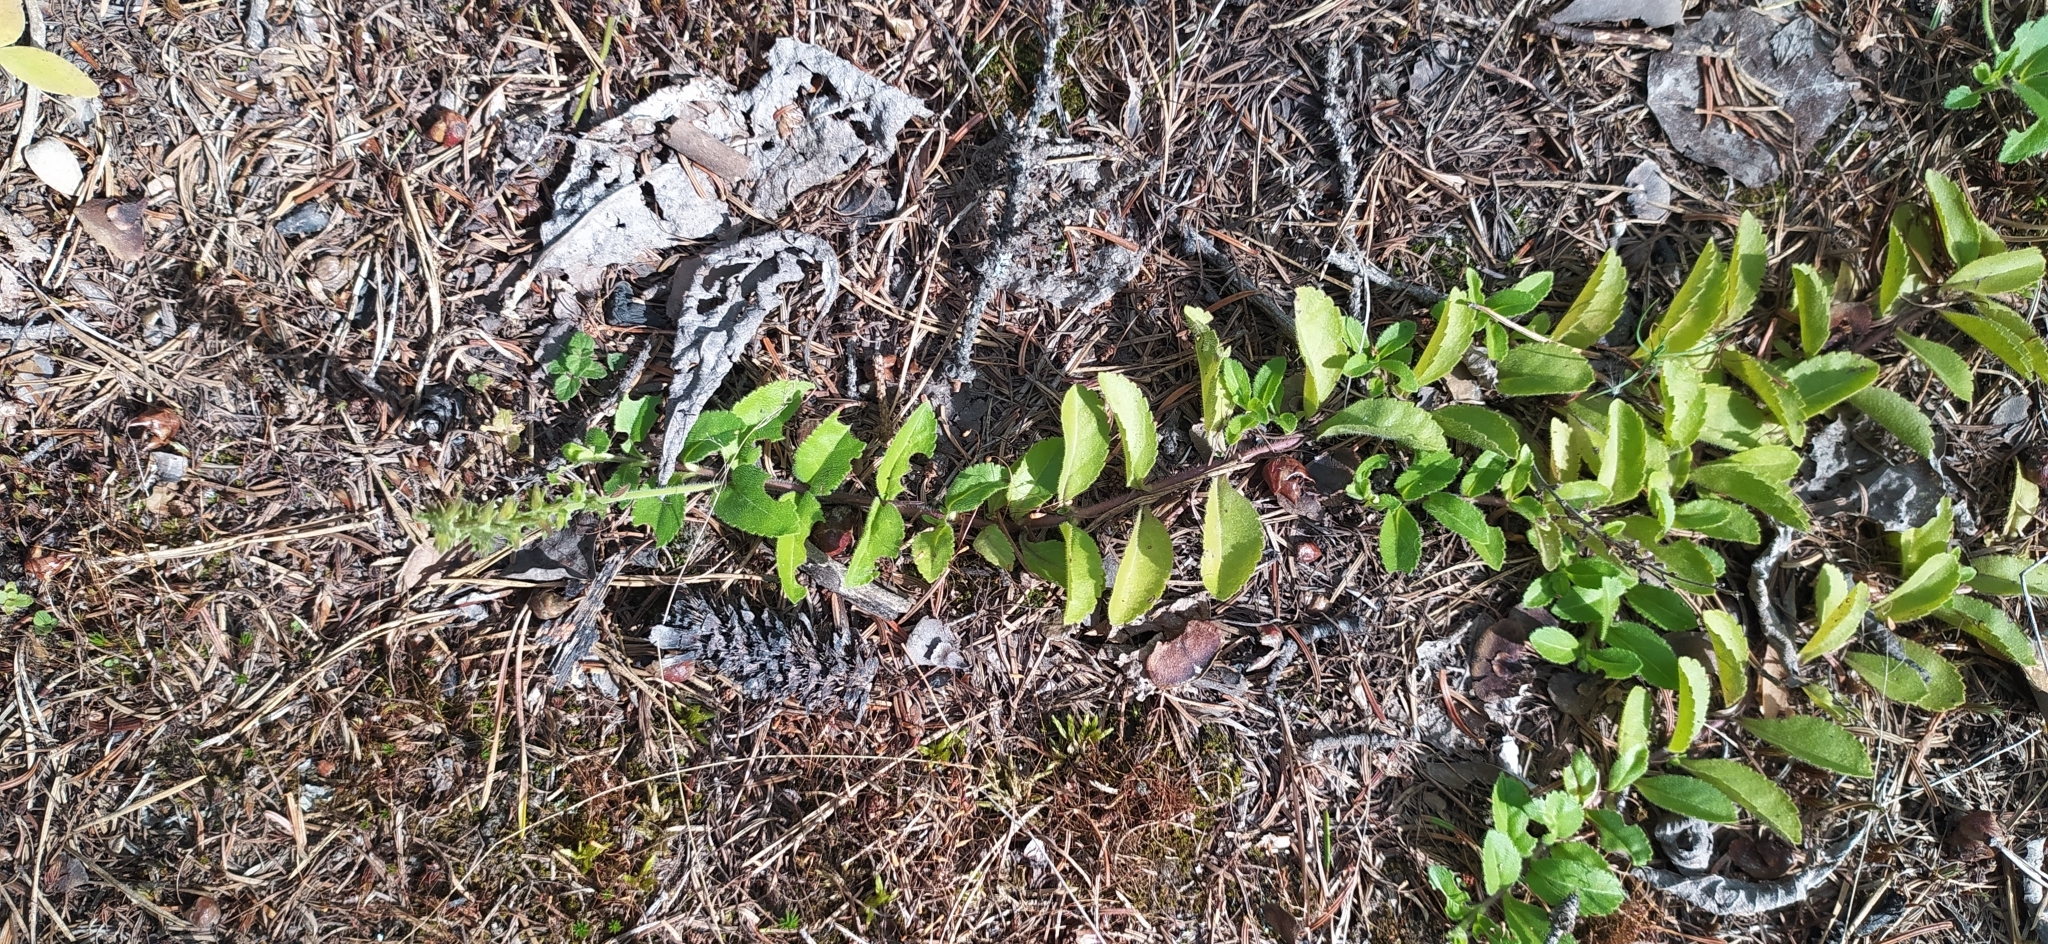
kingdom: Plantae
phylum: Tracheophyta
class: Magnoliopsida
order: Lamiales
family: Plantaginaceae
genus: Veronica
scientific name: Veronica officinalis
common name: Common speedwell
